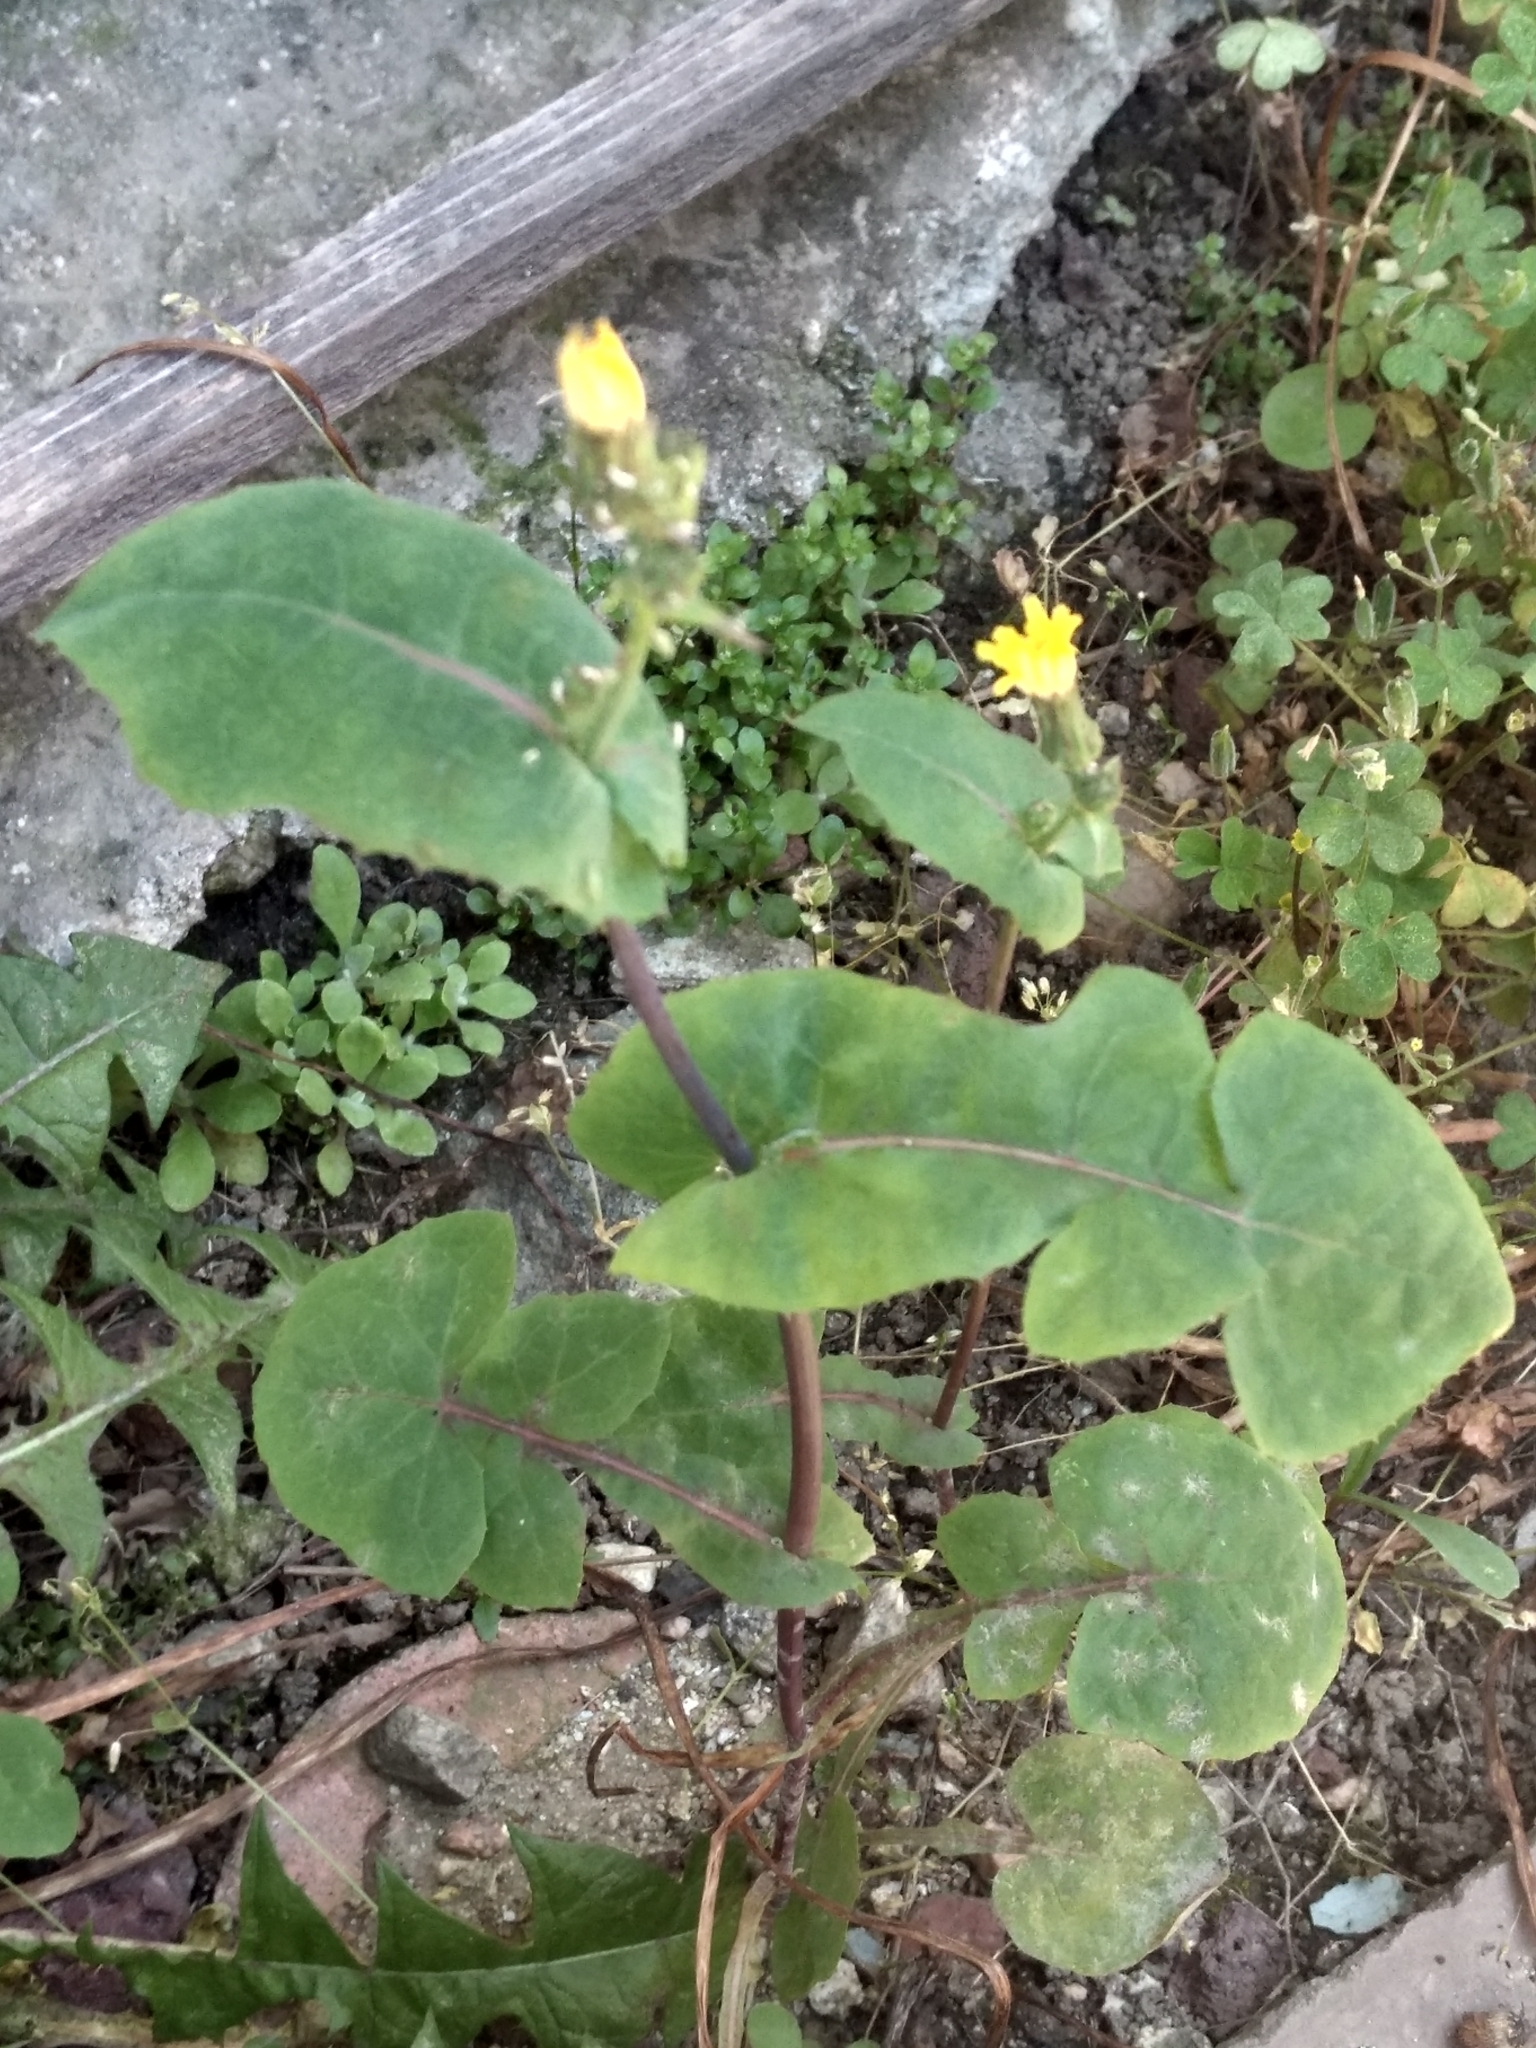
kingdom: Plantae
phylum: Tracheophyta
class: Magnoliopsida
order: Asterales
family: Asteraceae
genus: Sonchus
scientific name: Sonchus oleraceus
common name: Common sowthistle
